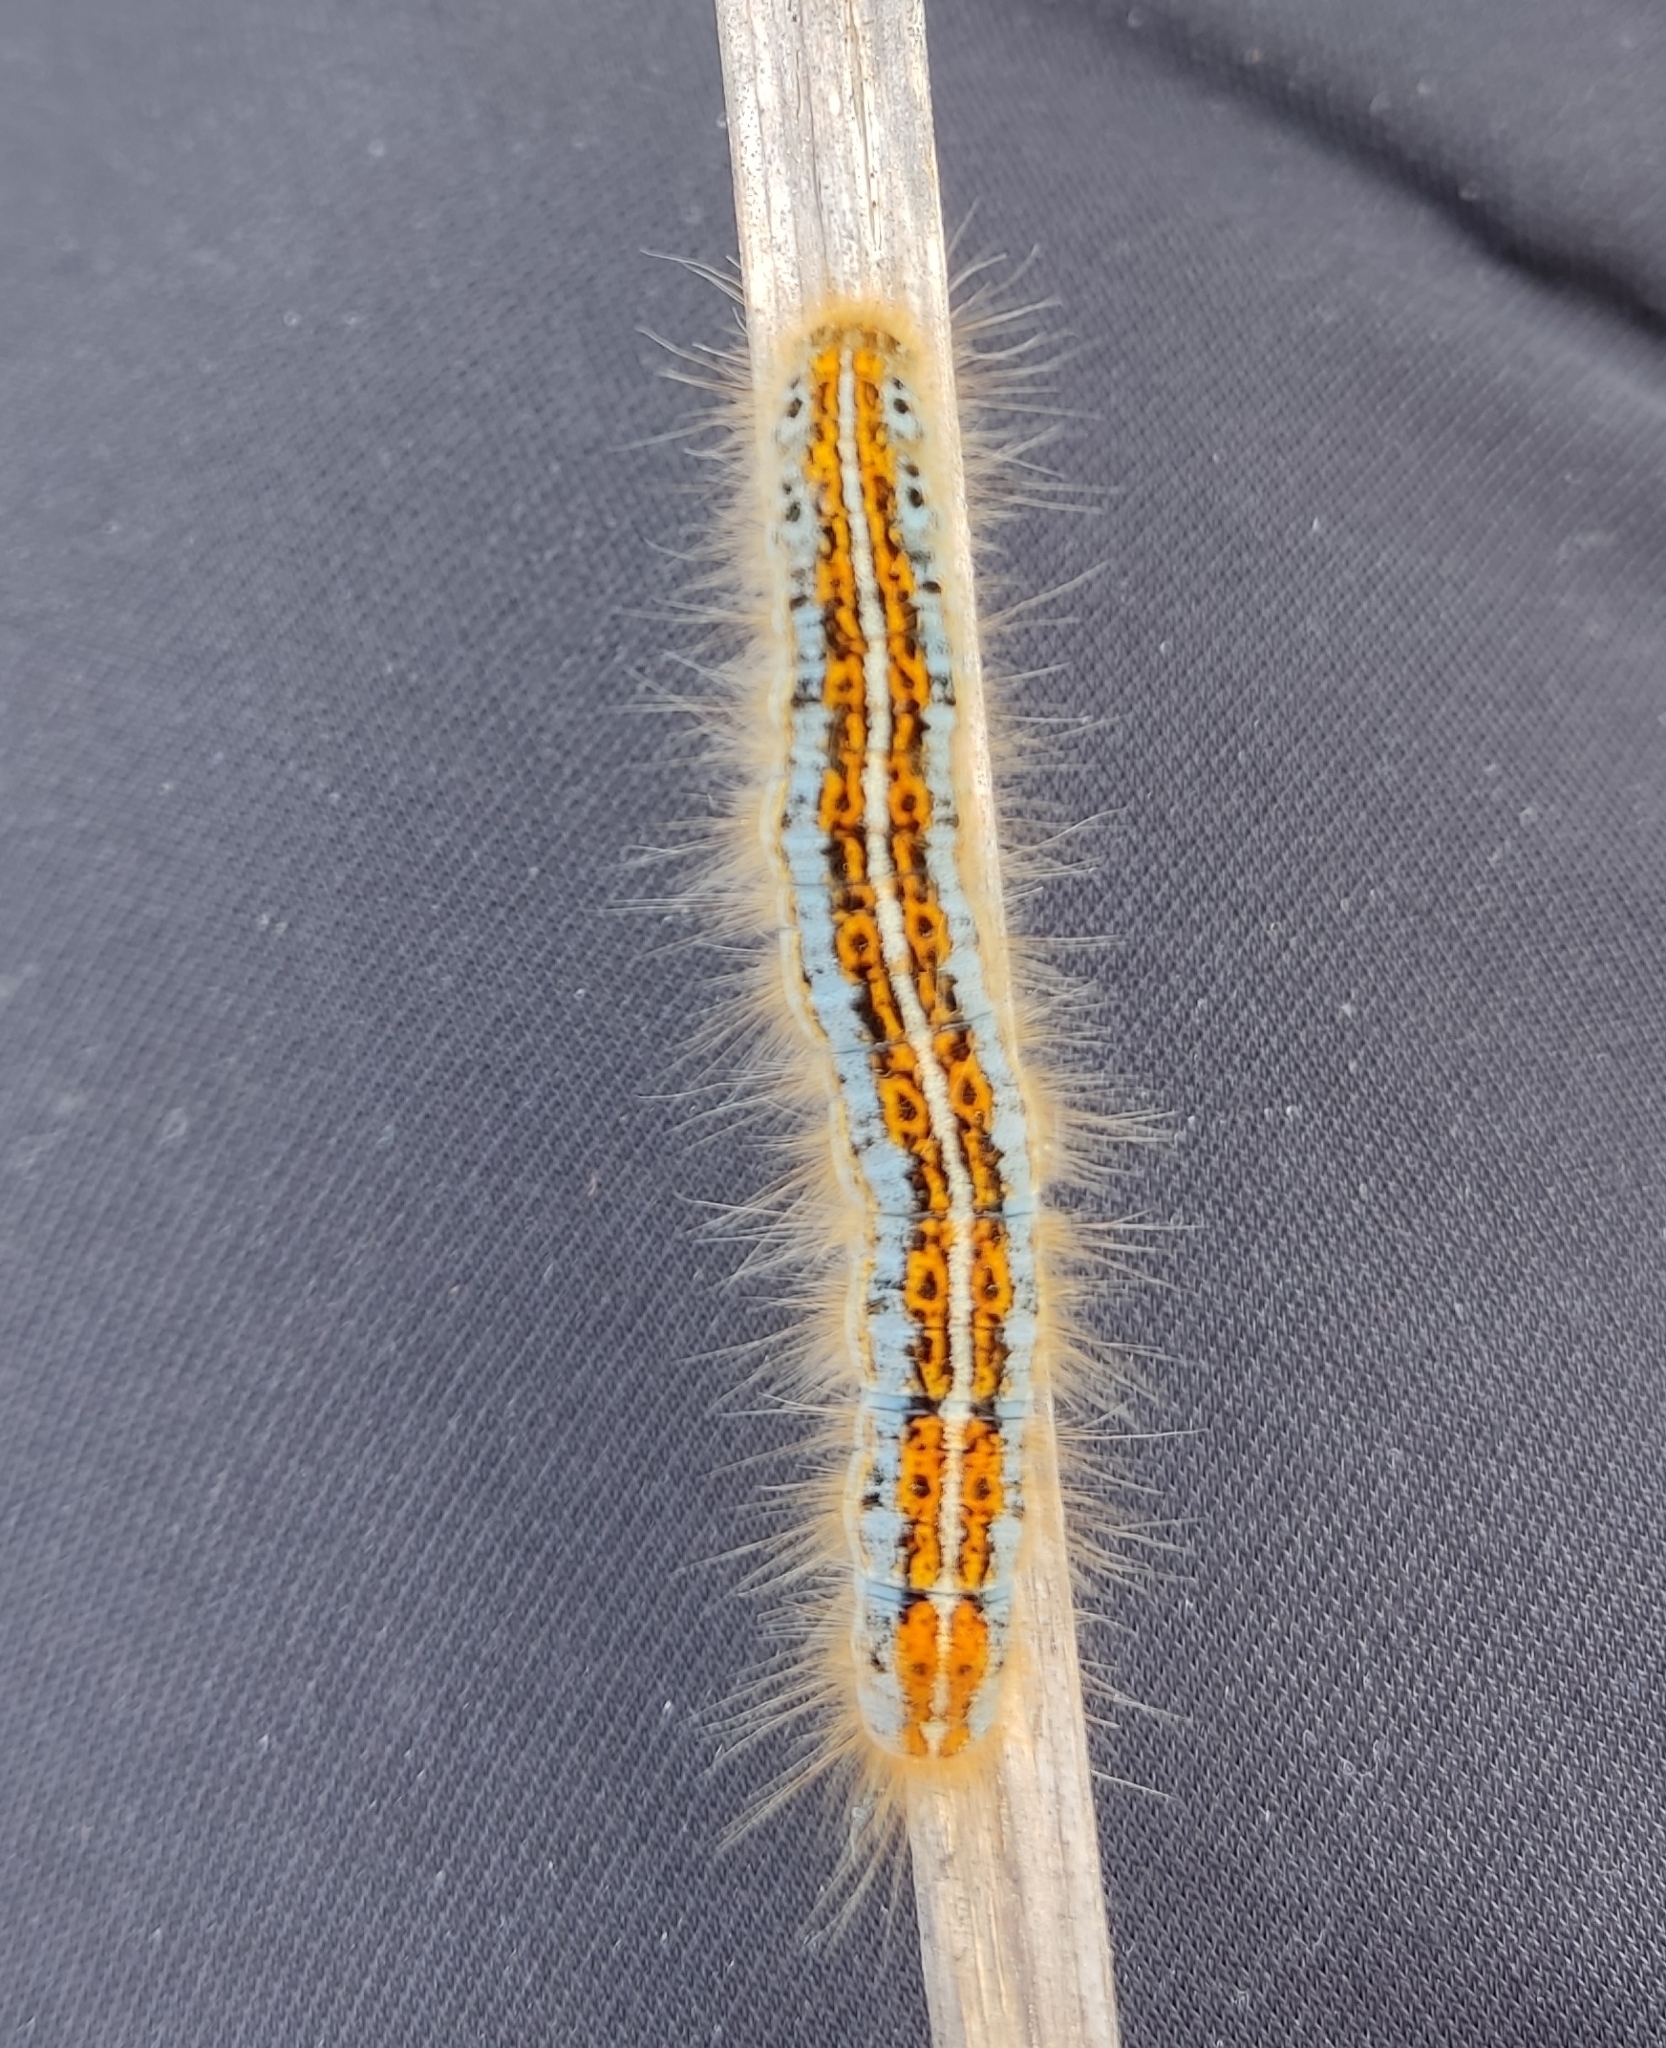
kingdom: Animalia
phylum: Arthropoda
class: Insecta
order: Lepidoptera
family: Lasiocampidae
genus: Malacosoma
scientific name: Malacosoma castrense
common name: Ground lackey
